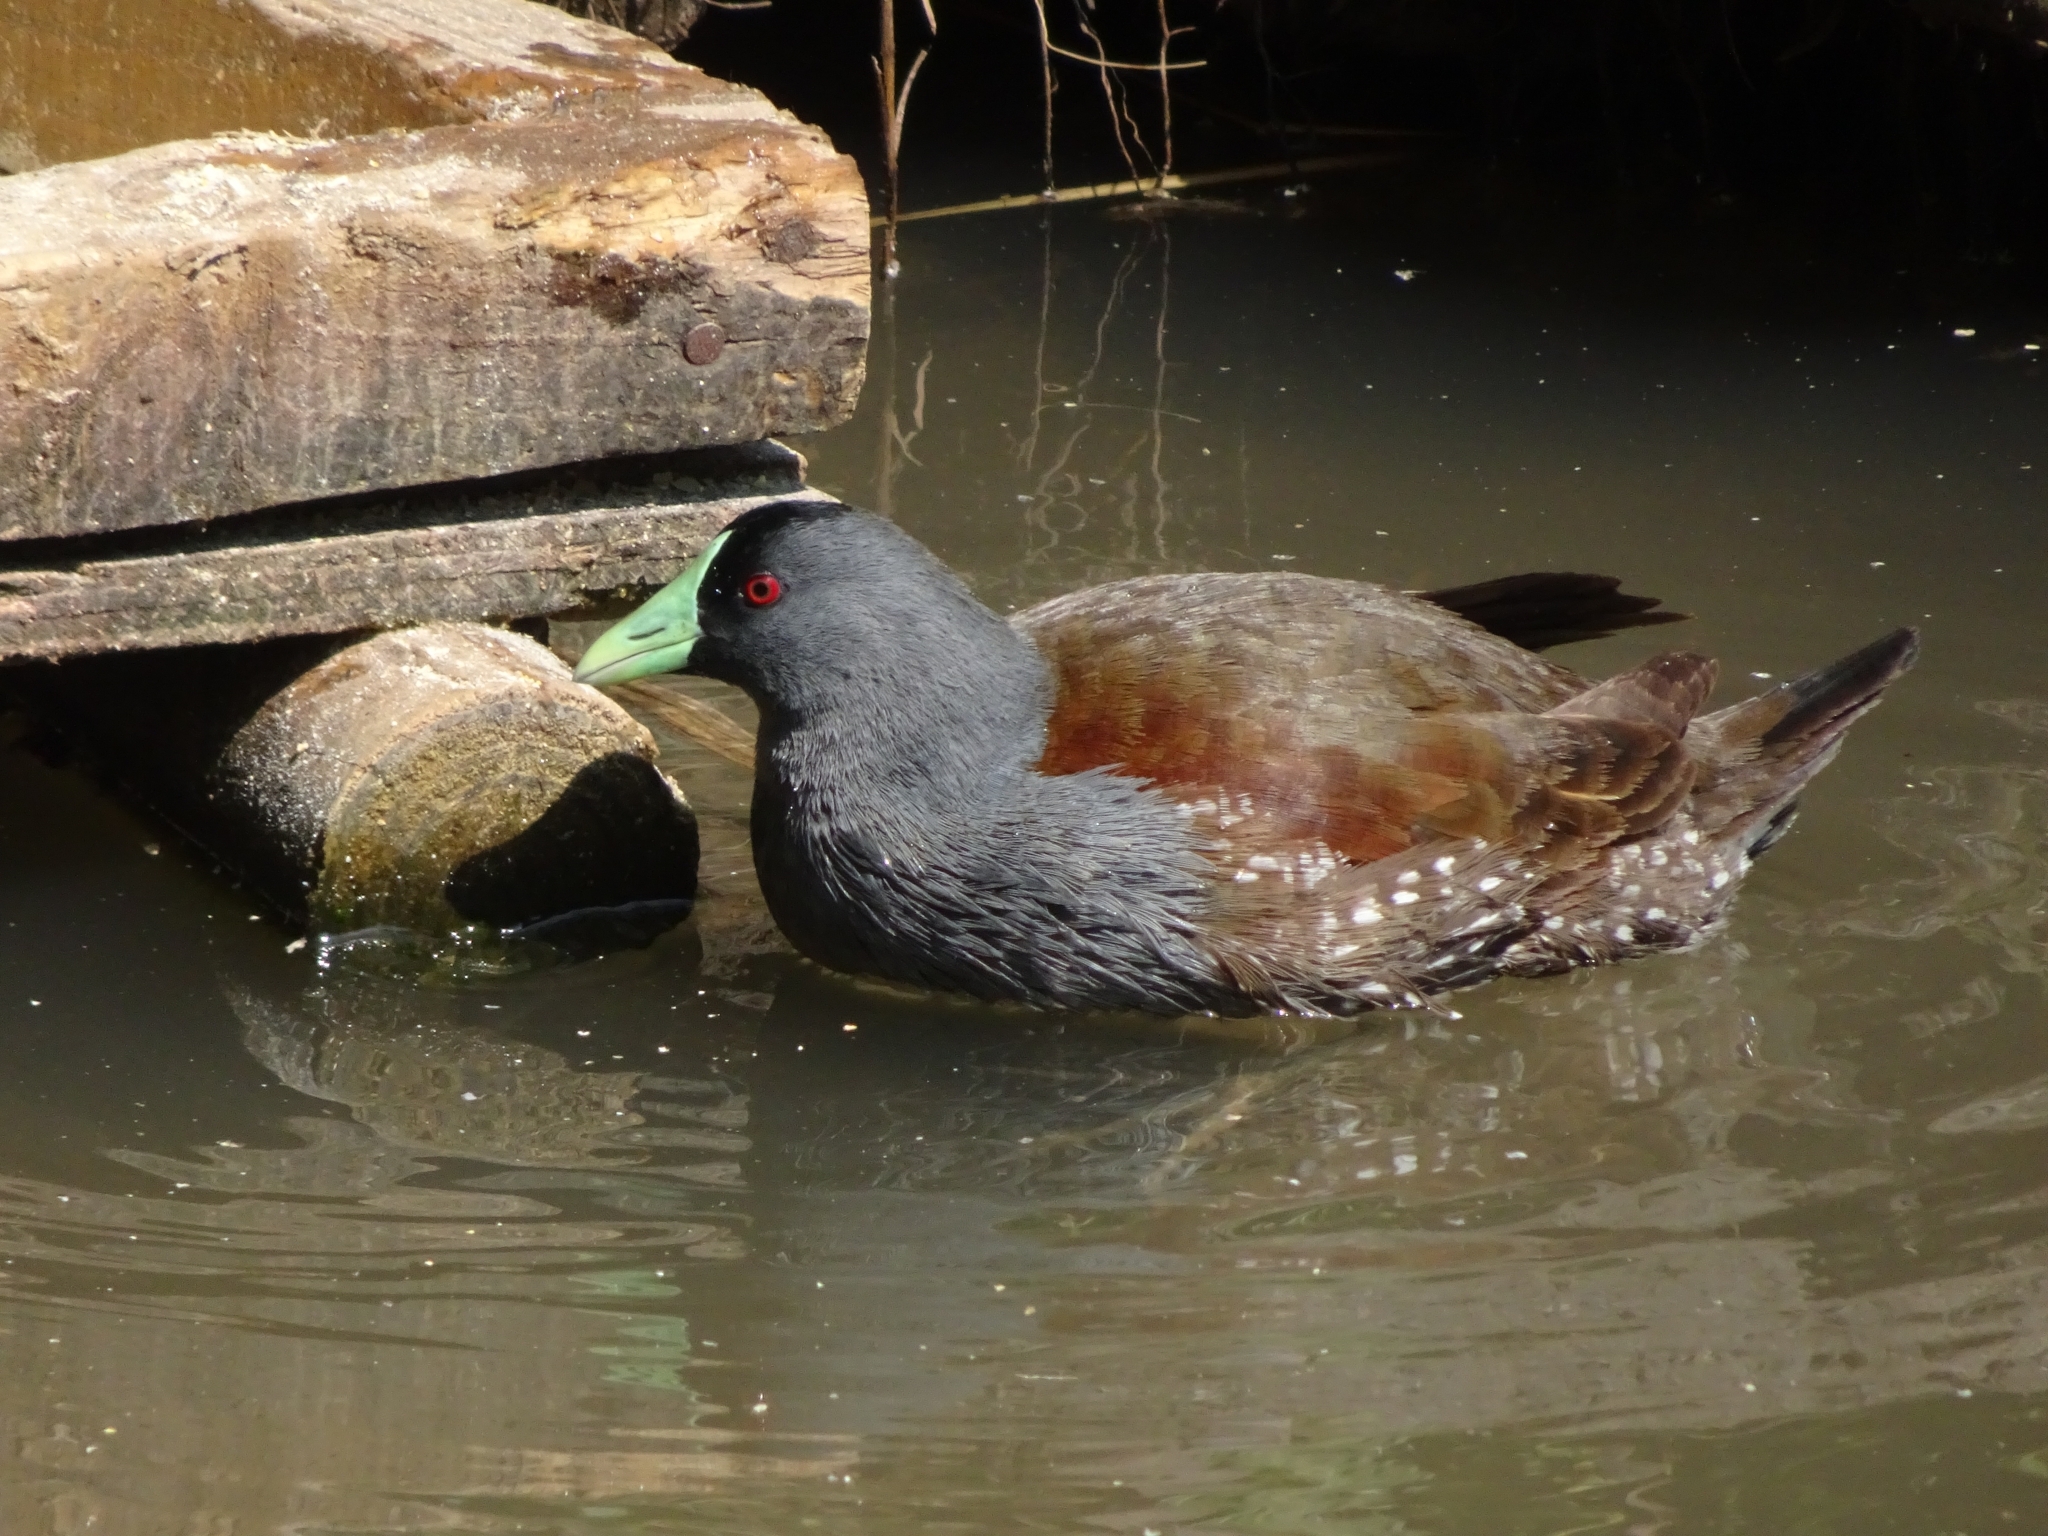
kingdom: Animalia
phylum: Chordata
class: Aves
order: Gruiformes
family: Rallidae
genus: Gallinula
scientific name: Gallinula melanops
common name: Spot-flanked gallinule
